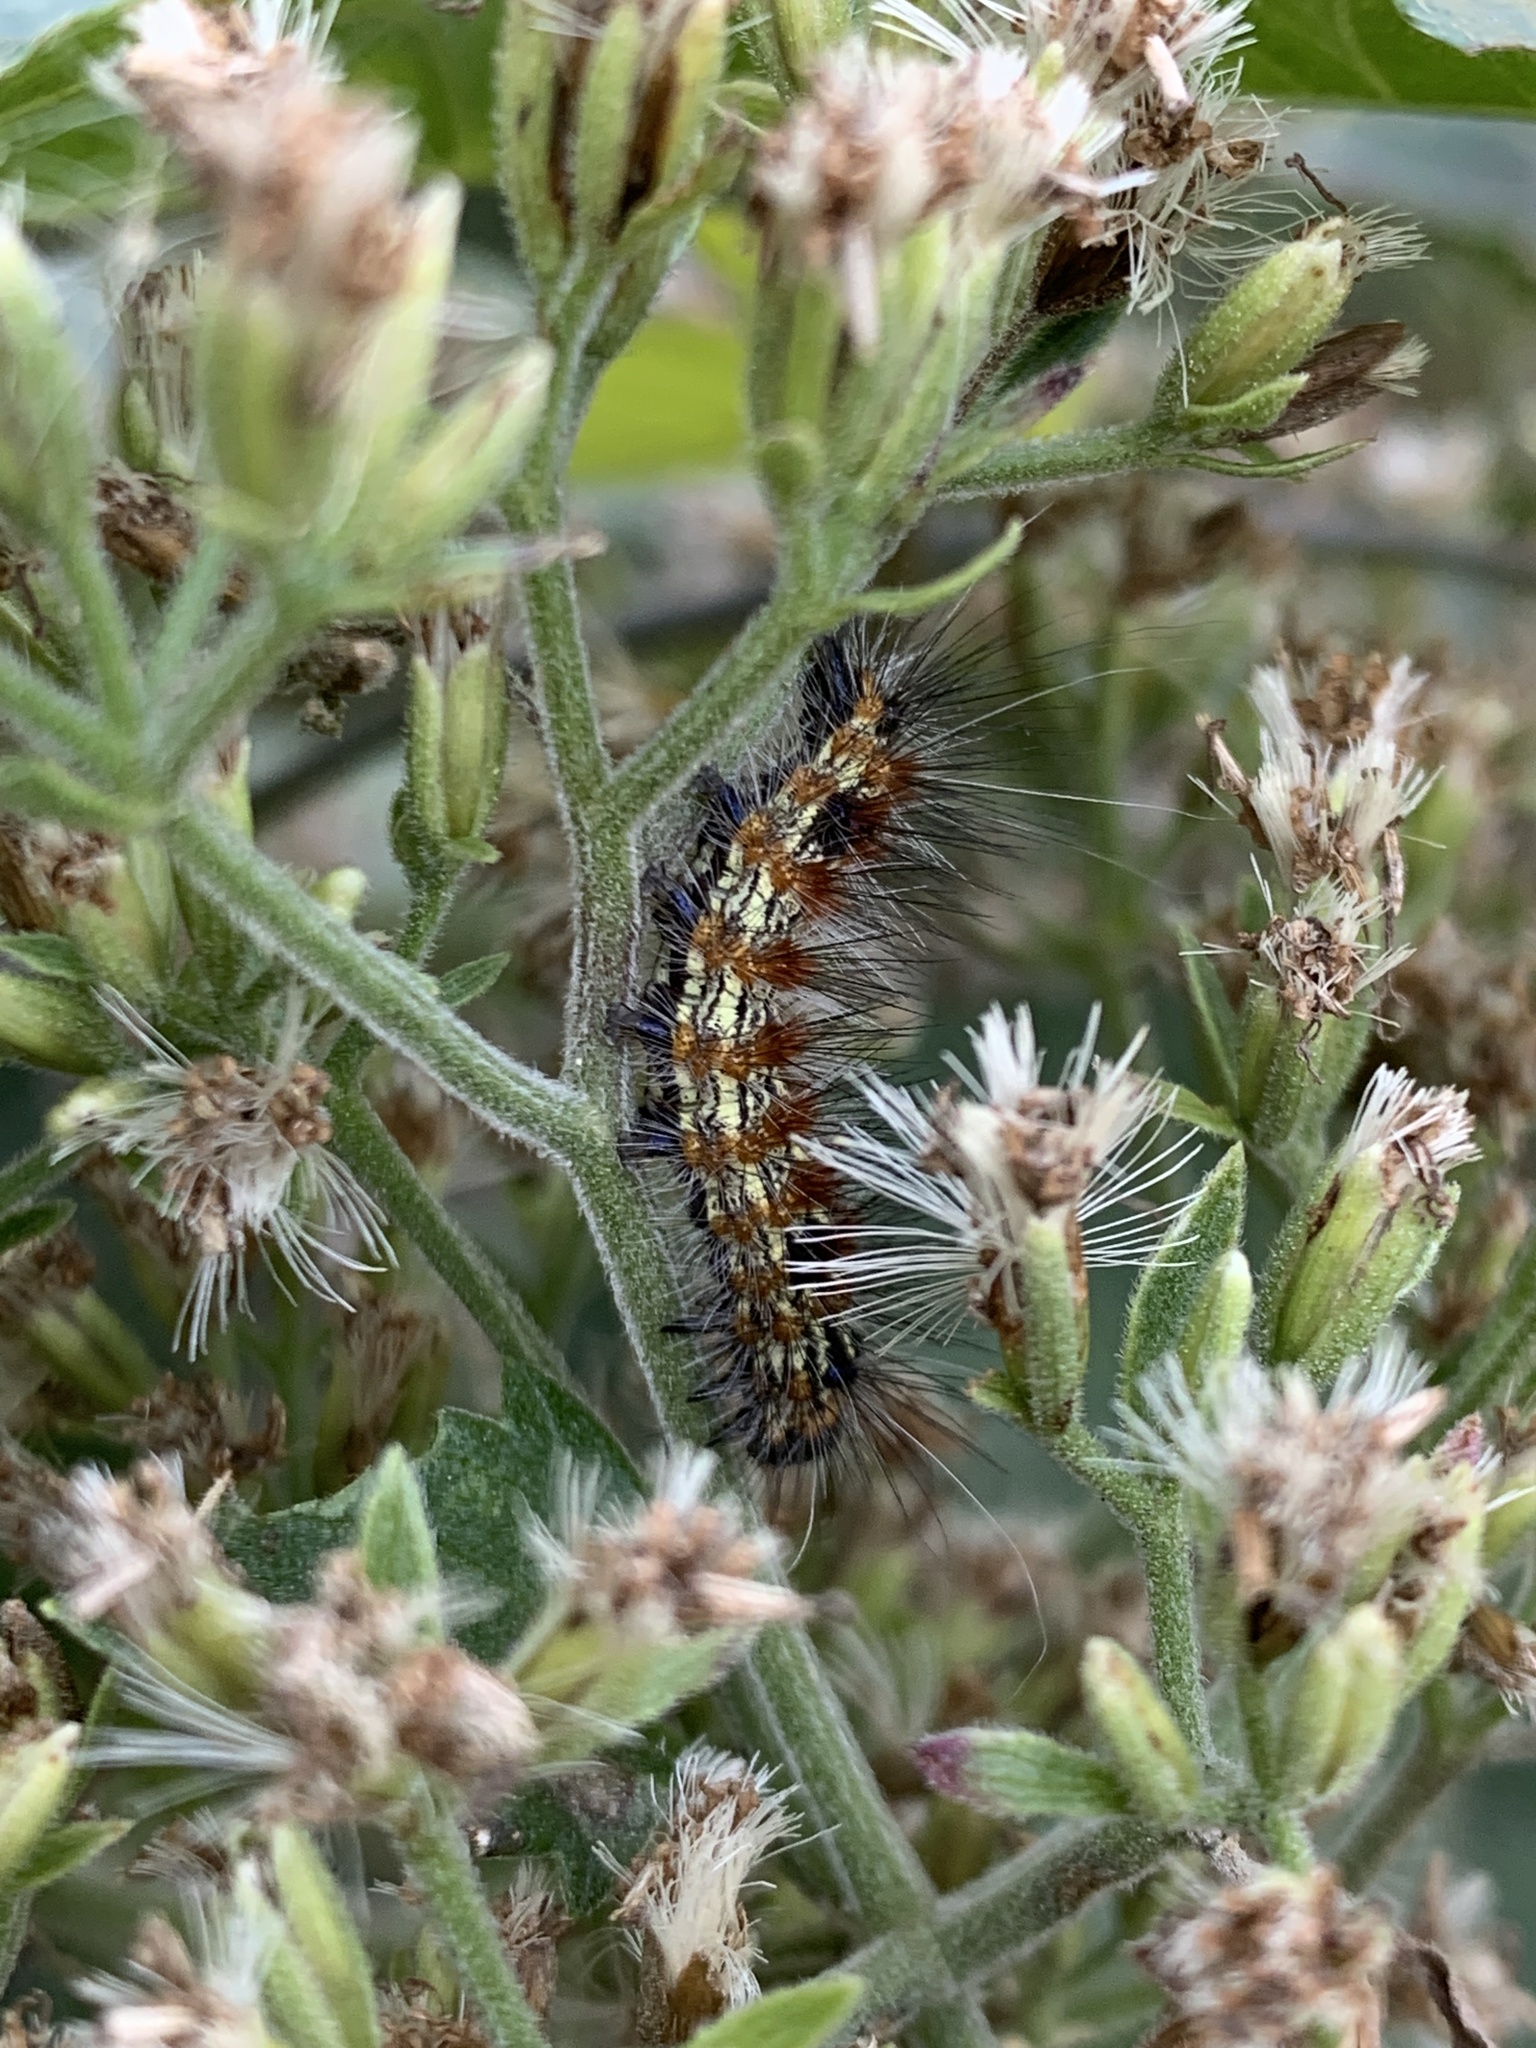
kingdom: Animalia
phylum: Arthropoda
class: Insecta
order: Lepidoptera
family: Erebidae
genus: Dysschema
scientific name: Dysschema sacrifica
